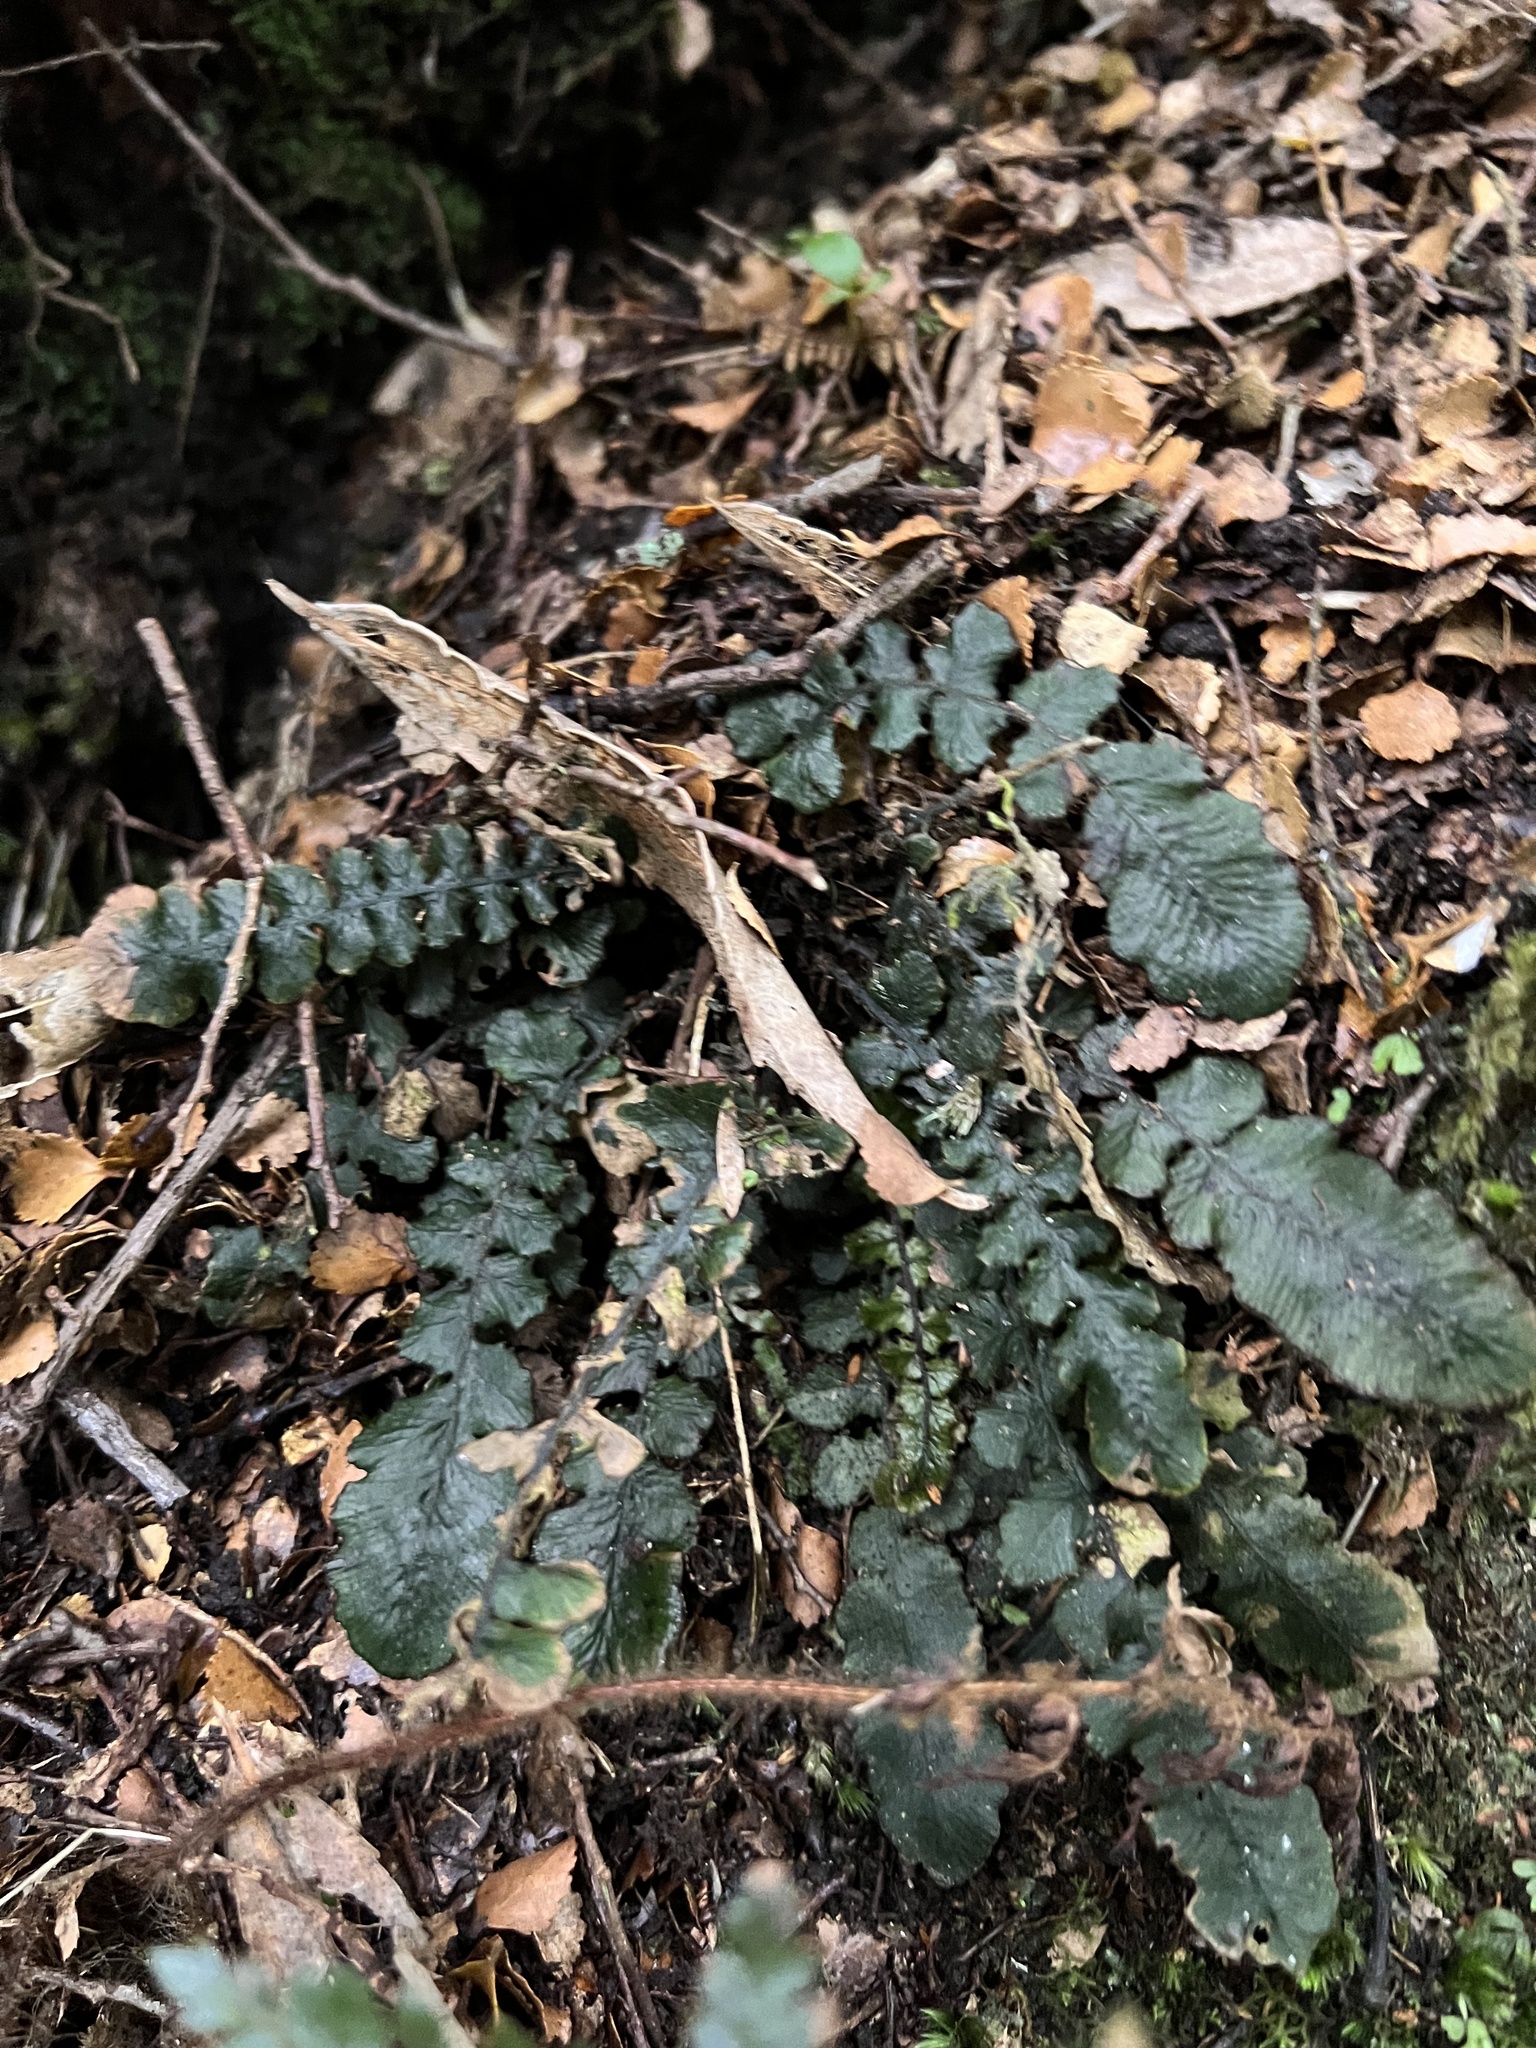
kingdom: Plantae
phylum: Tracheophyta
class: Polypodiopsida
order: Polypodiales
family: Blechnaceae
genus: Cranfillia
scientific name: Cranfillia nigra
